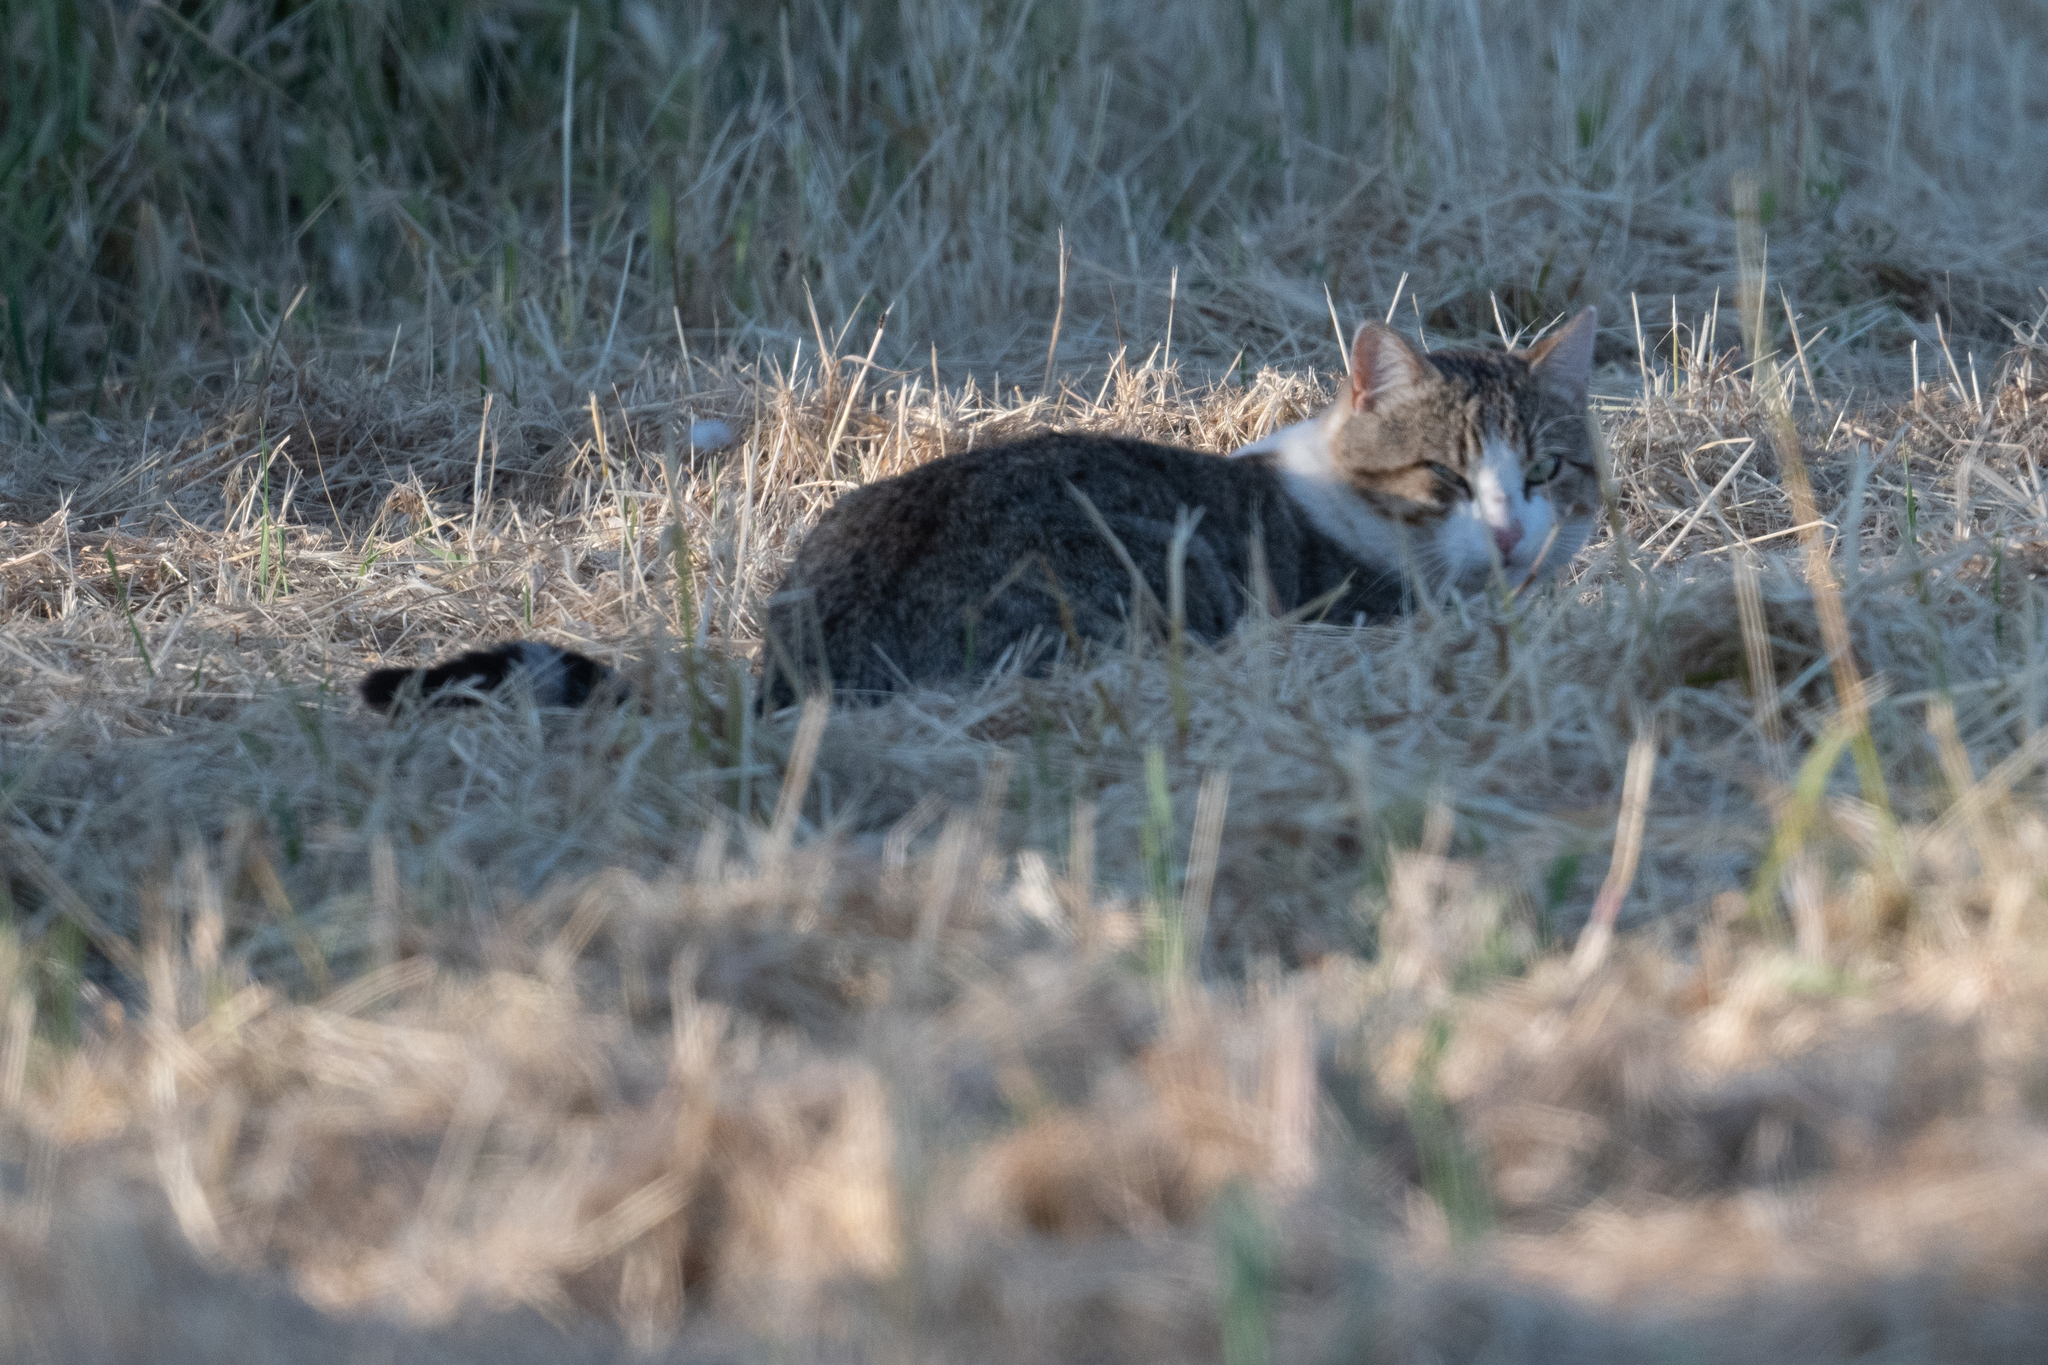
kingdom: Animalia
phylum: Chordata
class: Mammalia
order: Carnivora
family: Felidae
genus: Felis
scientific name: Felis catus
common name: Domestic cat
